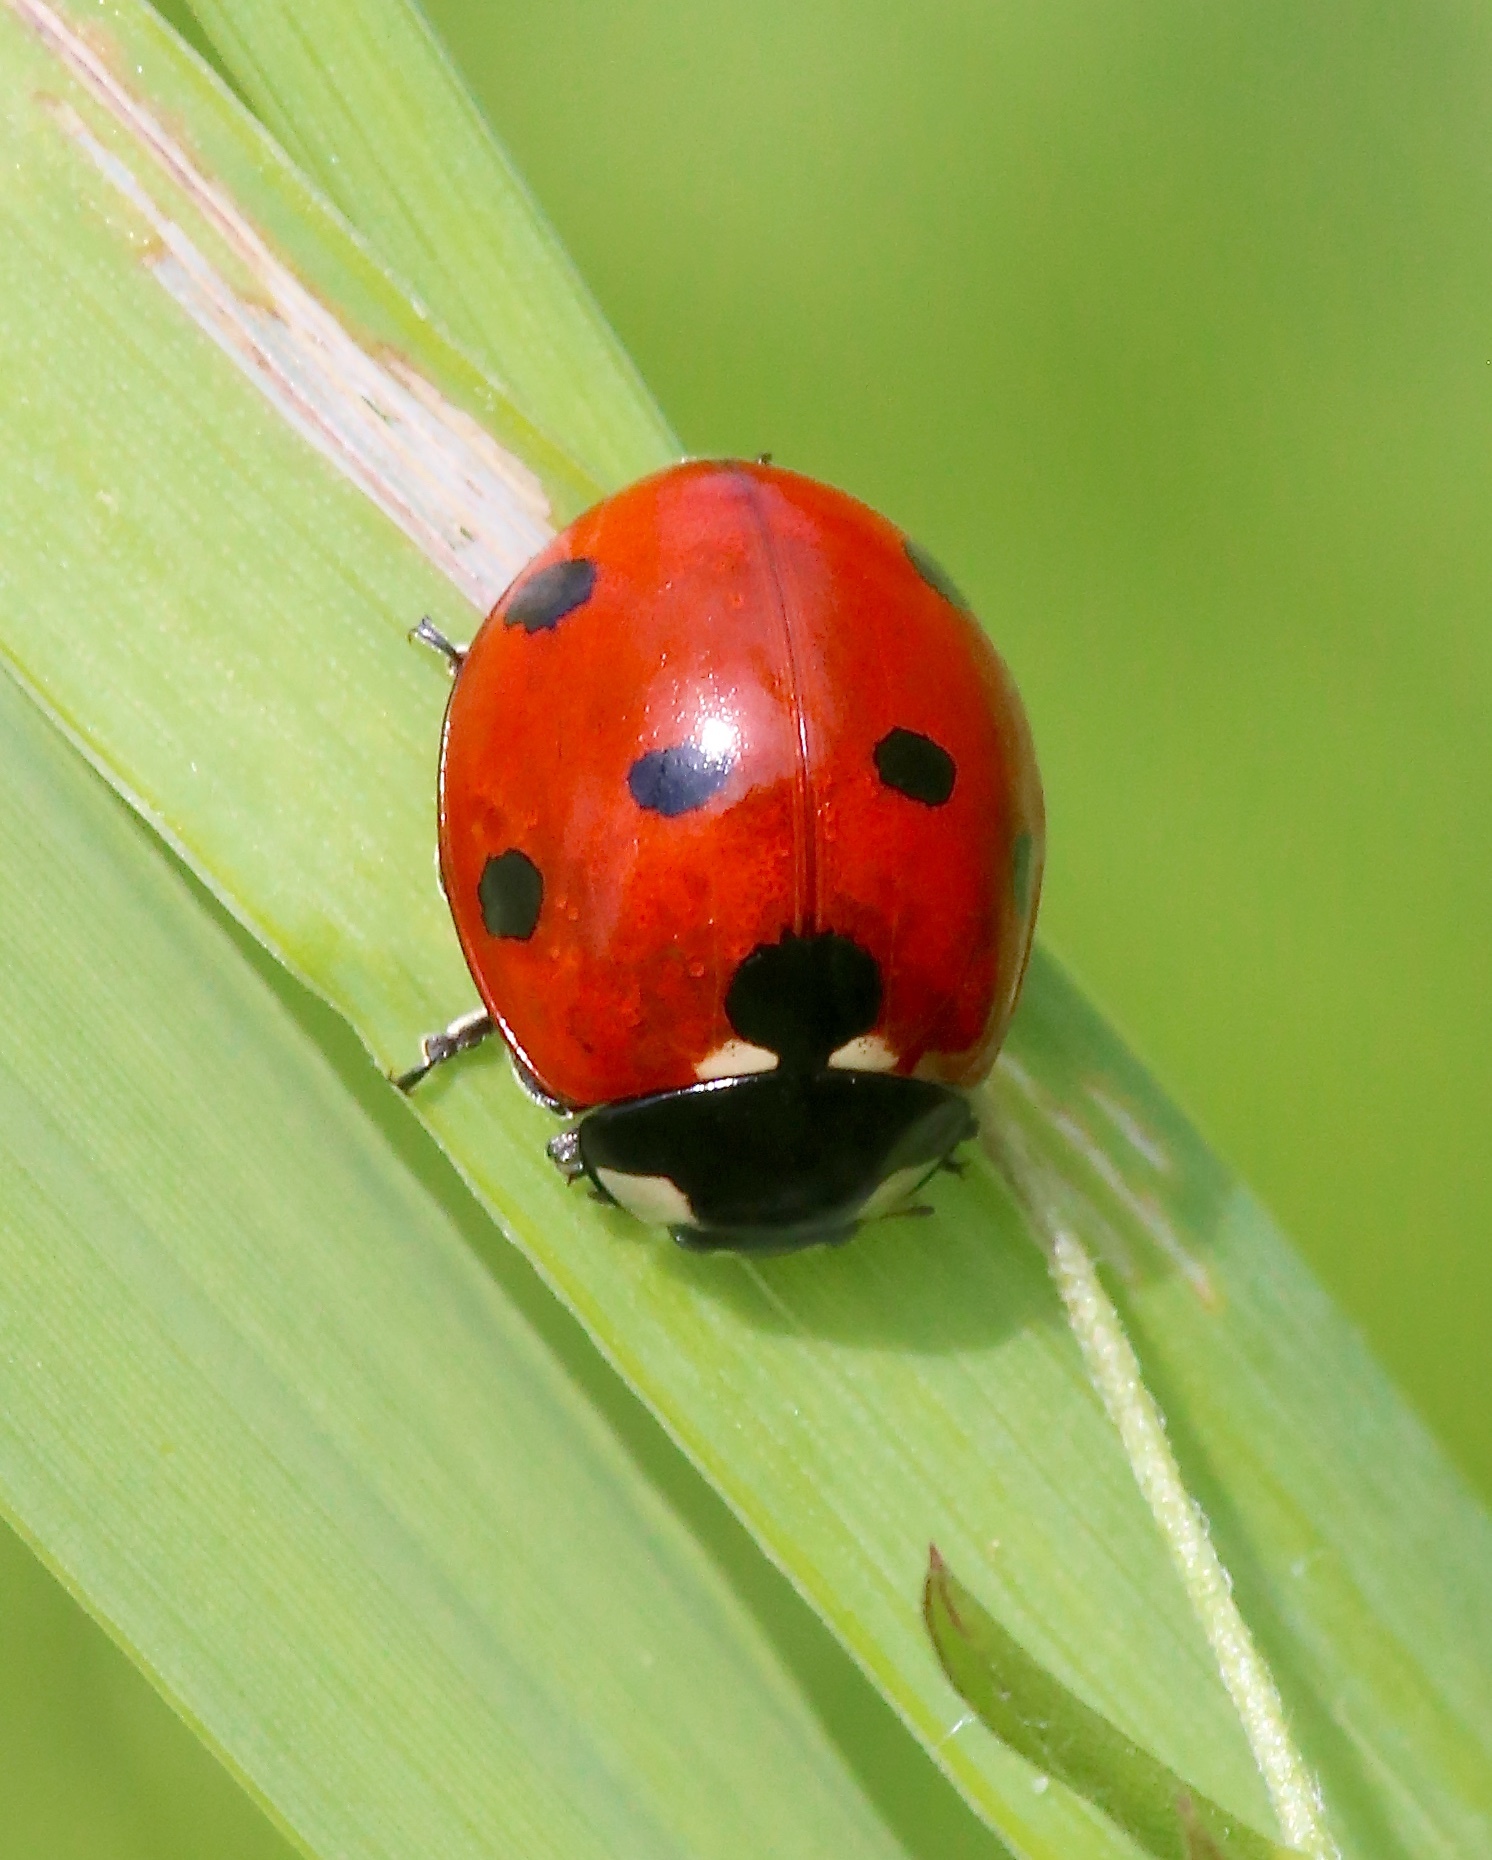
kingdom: Animalia
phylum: Arthropoda
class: Insecta
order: Coleoptera
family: Coccinellidae
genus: Coccinella
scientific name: Coccinella septempunctata
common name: Sevenspotted lady beetle
